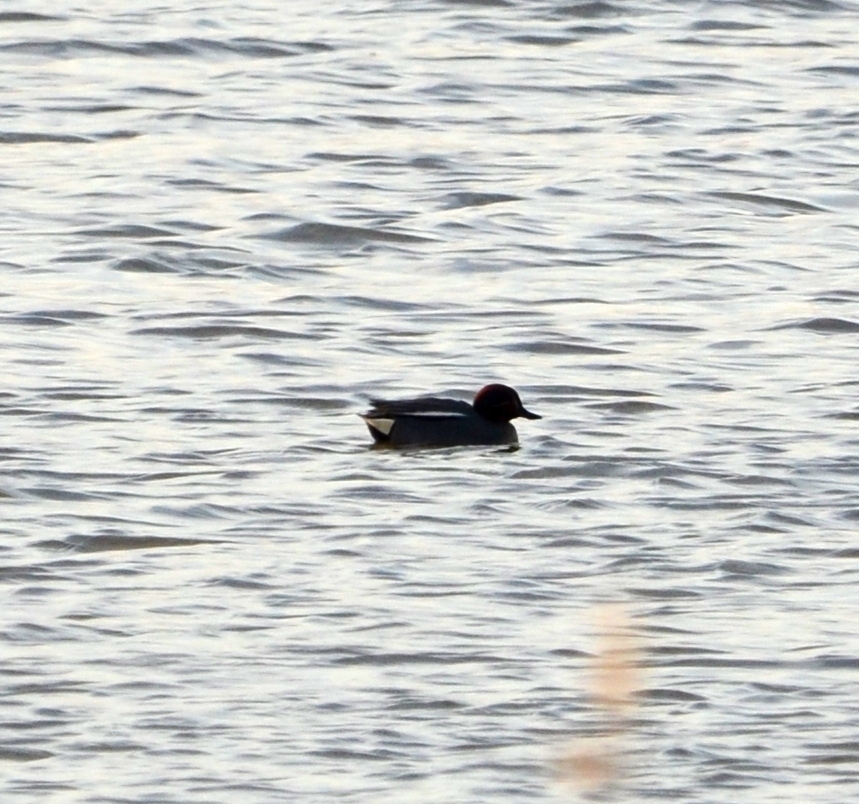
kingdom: Animalia
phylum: Chordata
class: Aves
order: Anseriformes
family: Anatidae
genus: Anas
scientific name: Anas crecca
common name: Eurasian teal
